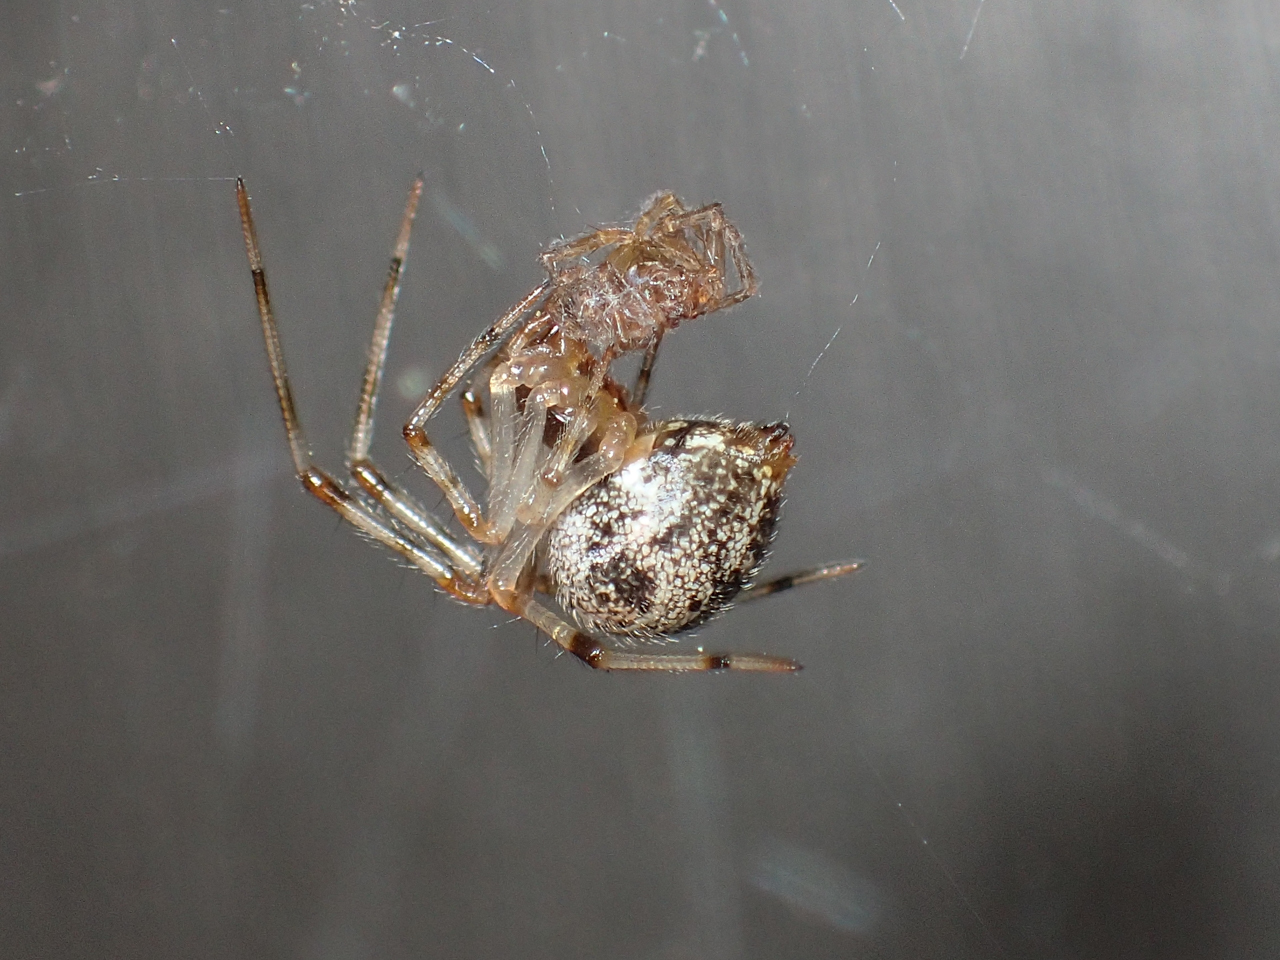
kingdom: Animalia
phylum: Arthropoda
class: Arachnida
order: Araneae
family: Theridiidae
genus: Parasteatoda
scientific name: Parasteatoda tepidariorum
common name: Common house spider
